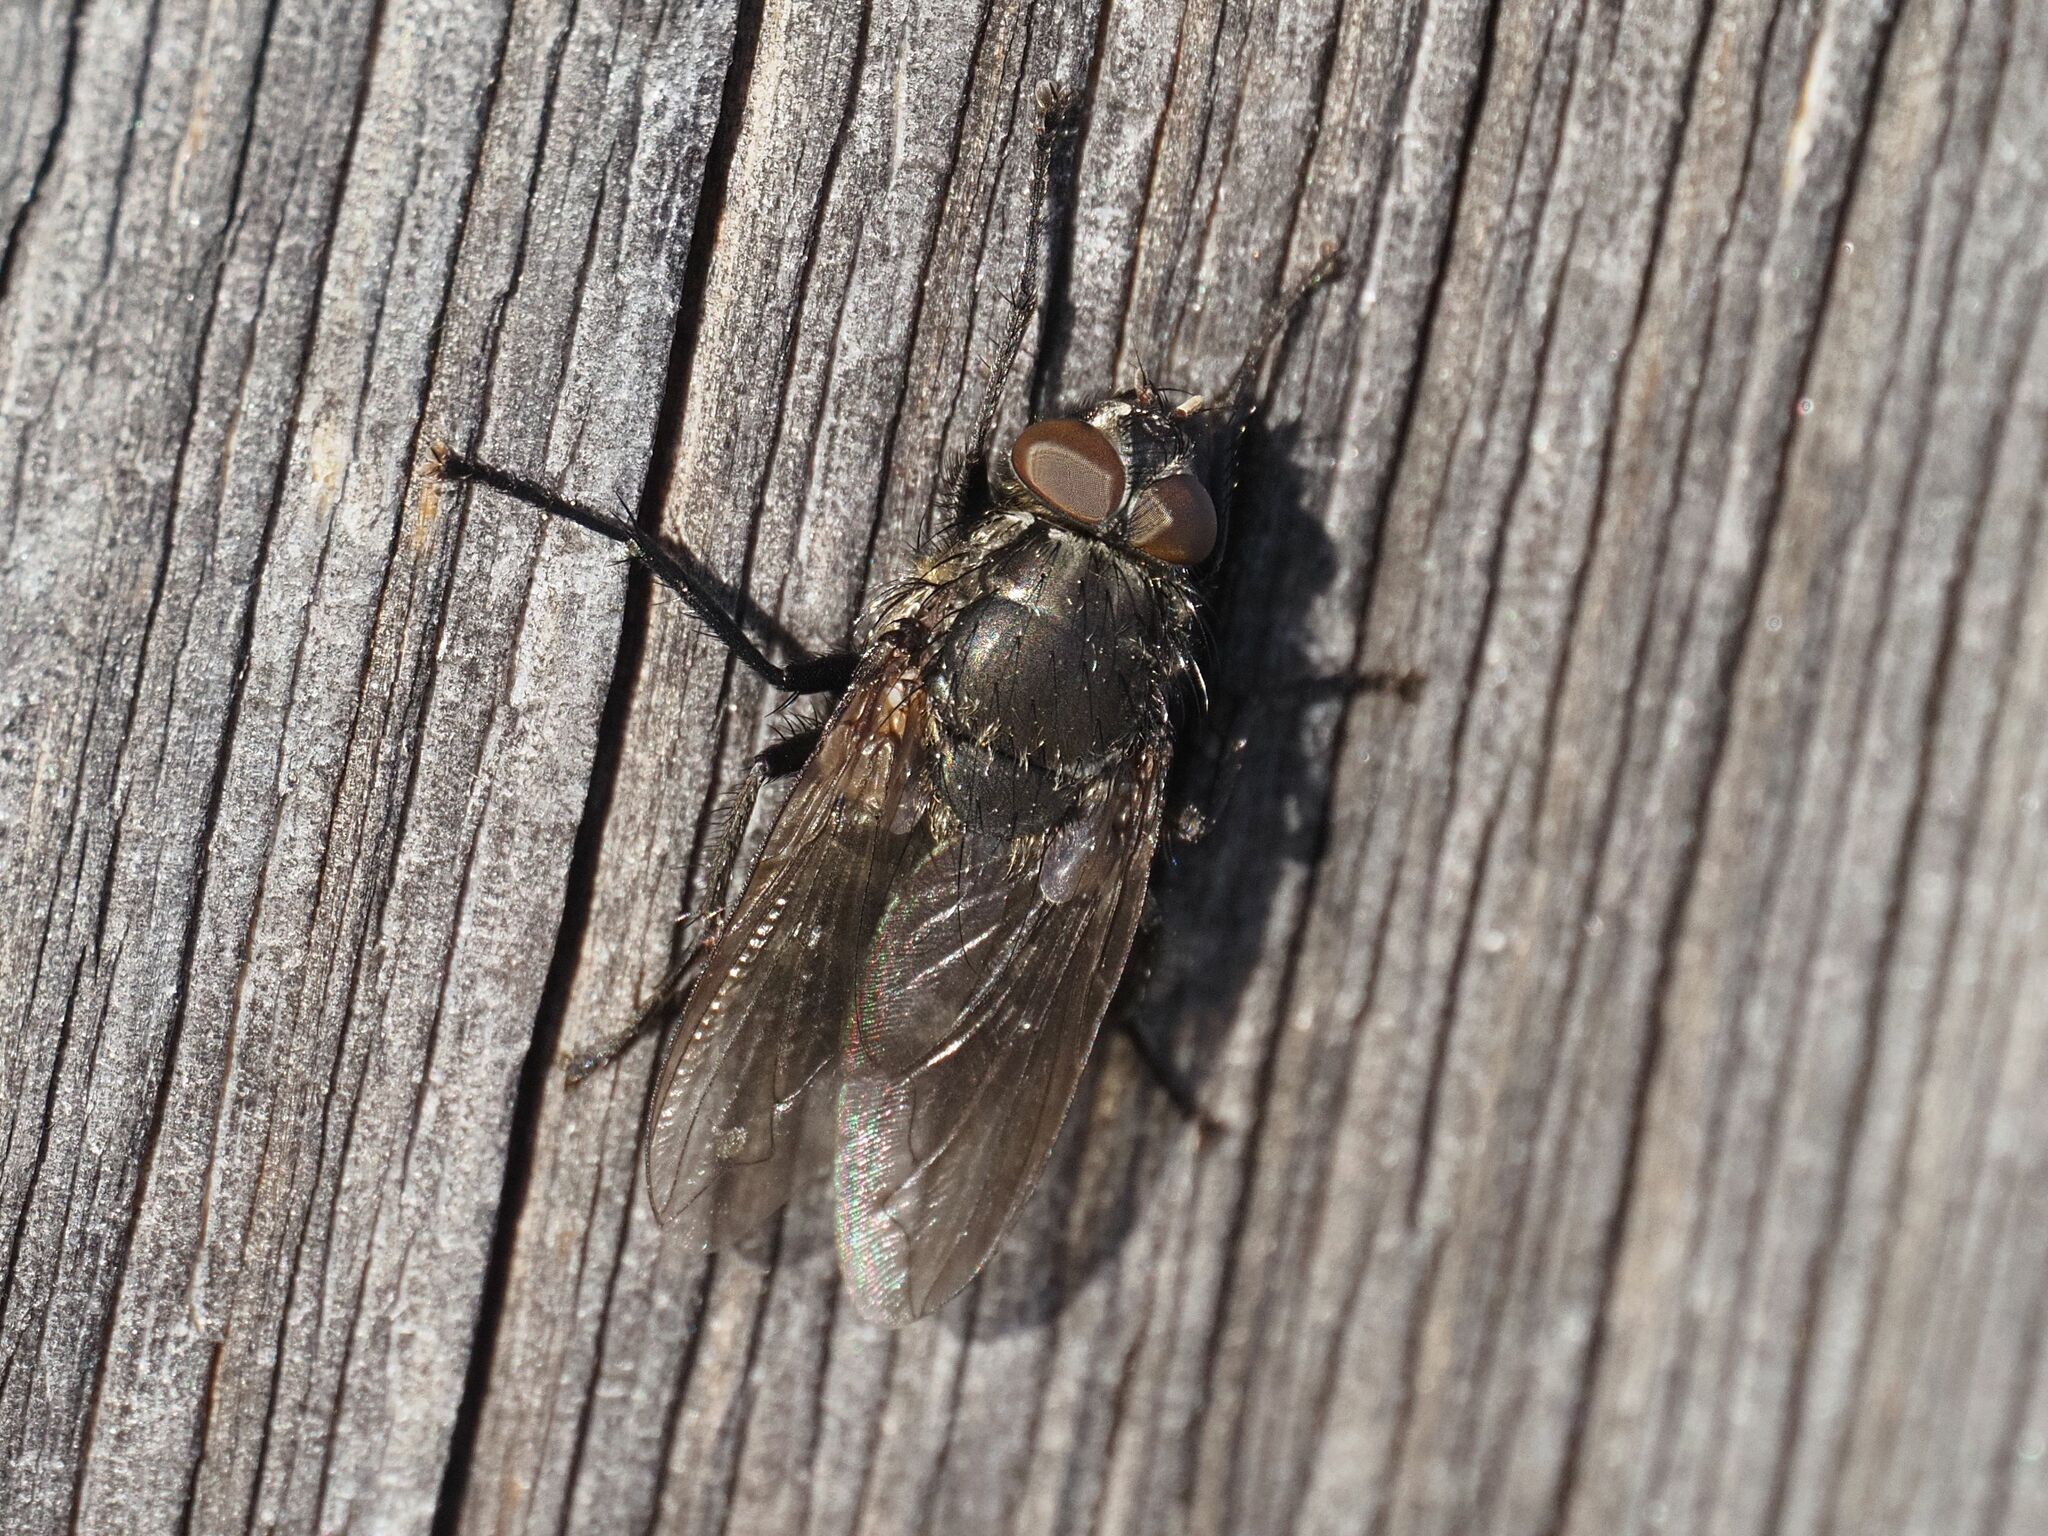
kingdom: Animalia
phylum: Arthropoda
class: Insecta
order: Diptera
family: Polleniidae
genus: Pollenia
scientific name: Pollenia vagabunda
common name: Vagabund cluster fly
